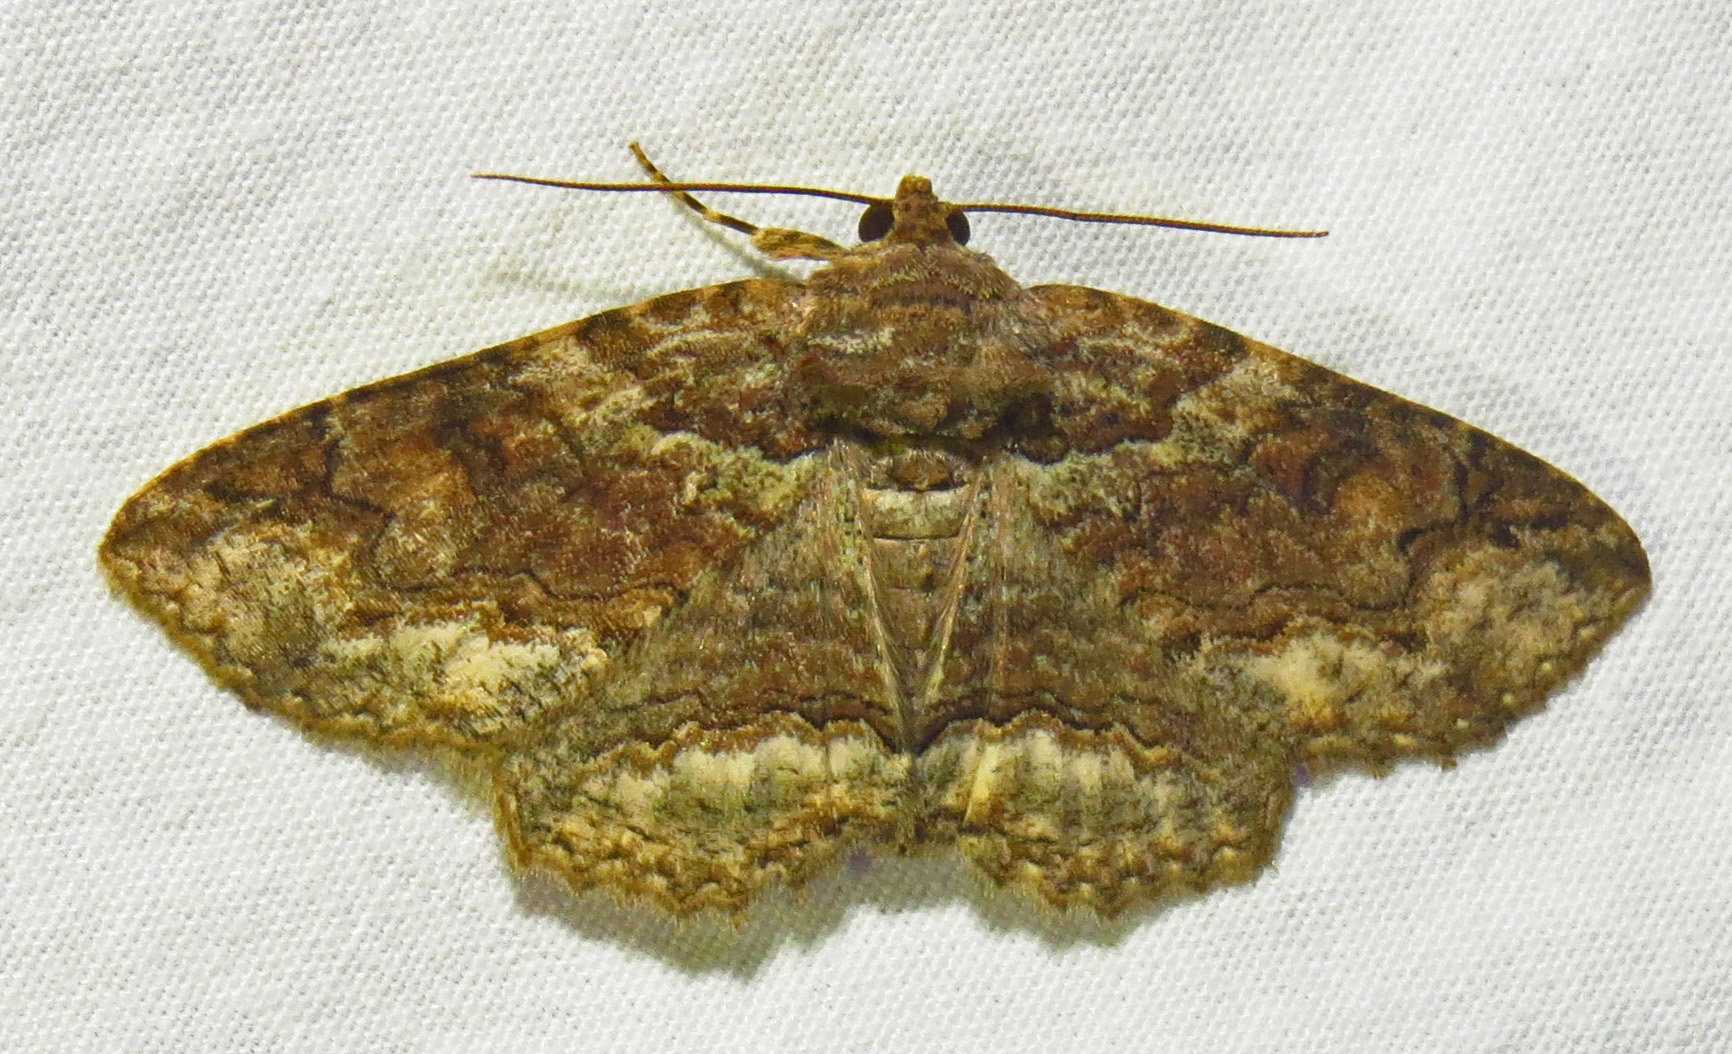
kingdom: Animalia
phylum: Arthropoda
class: Insecta
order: Lepidoptera
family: Erebidae
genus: Zale
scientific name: Zale galbanata
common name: Maple zale
